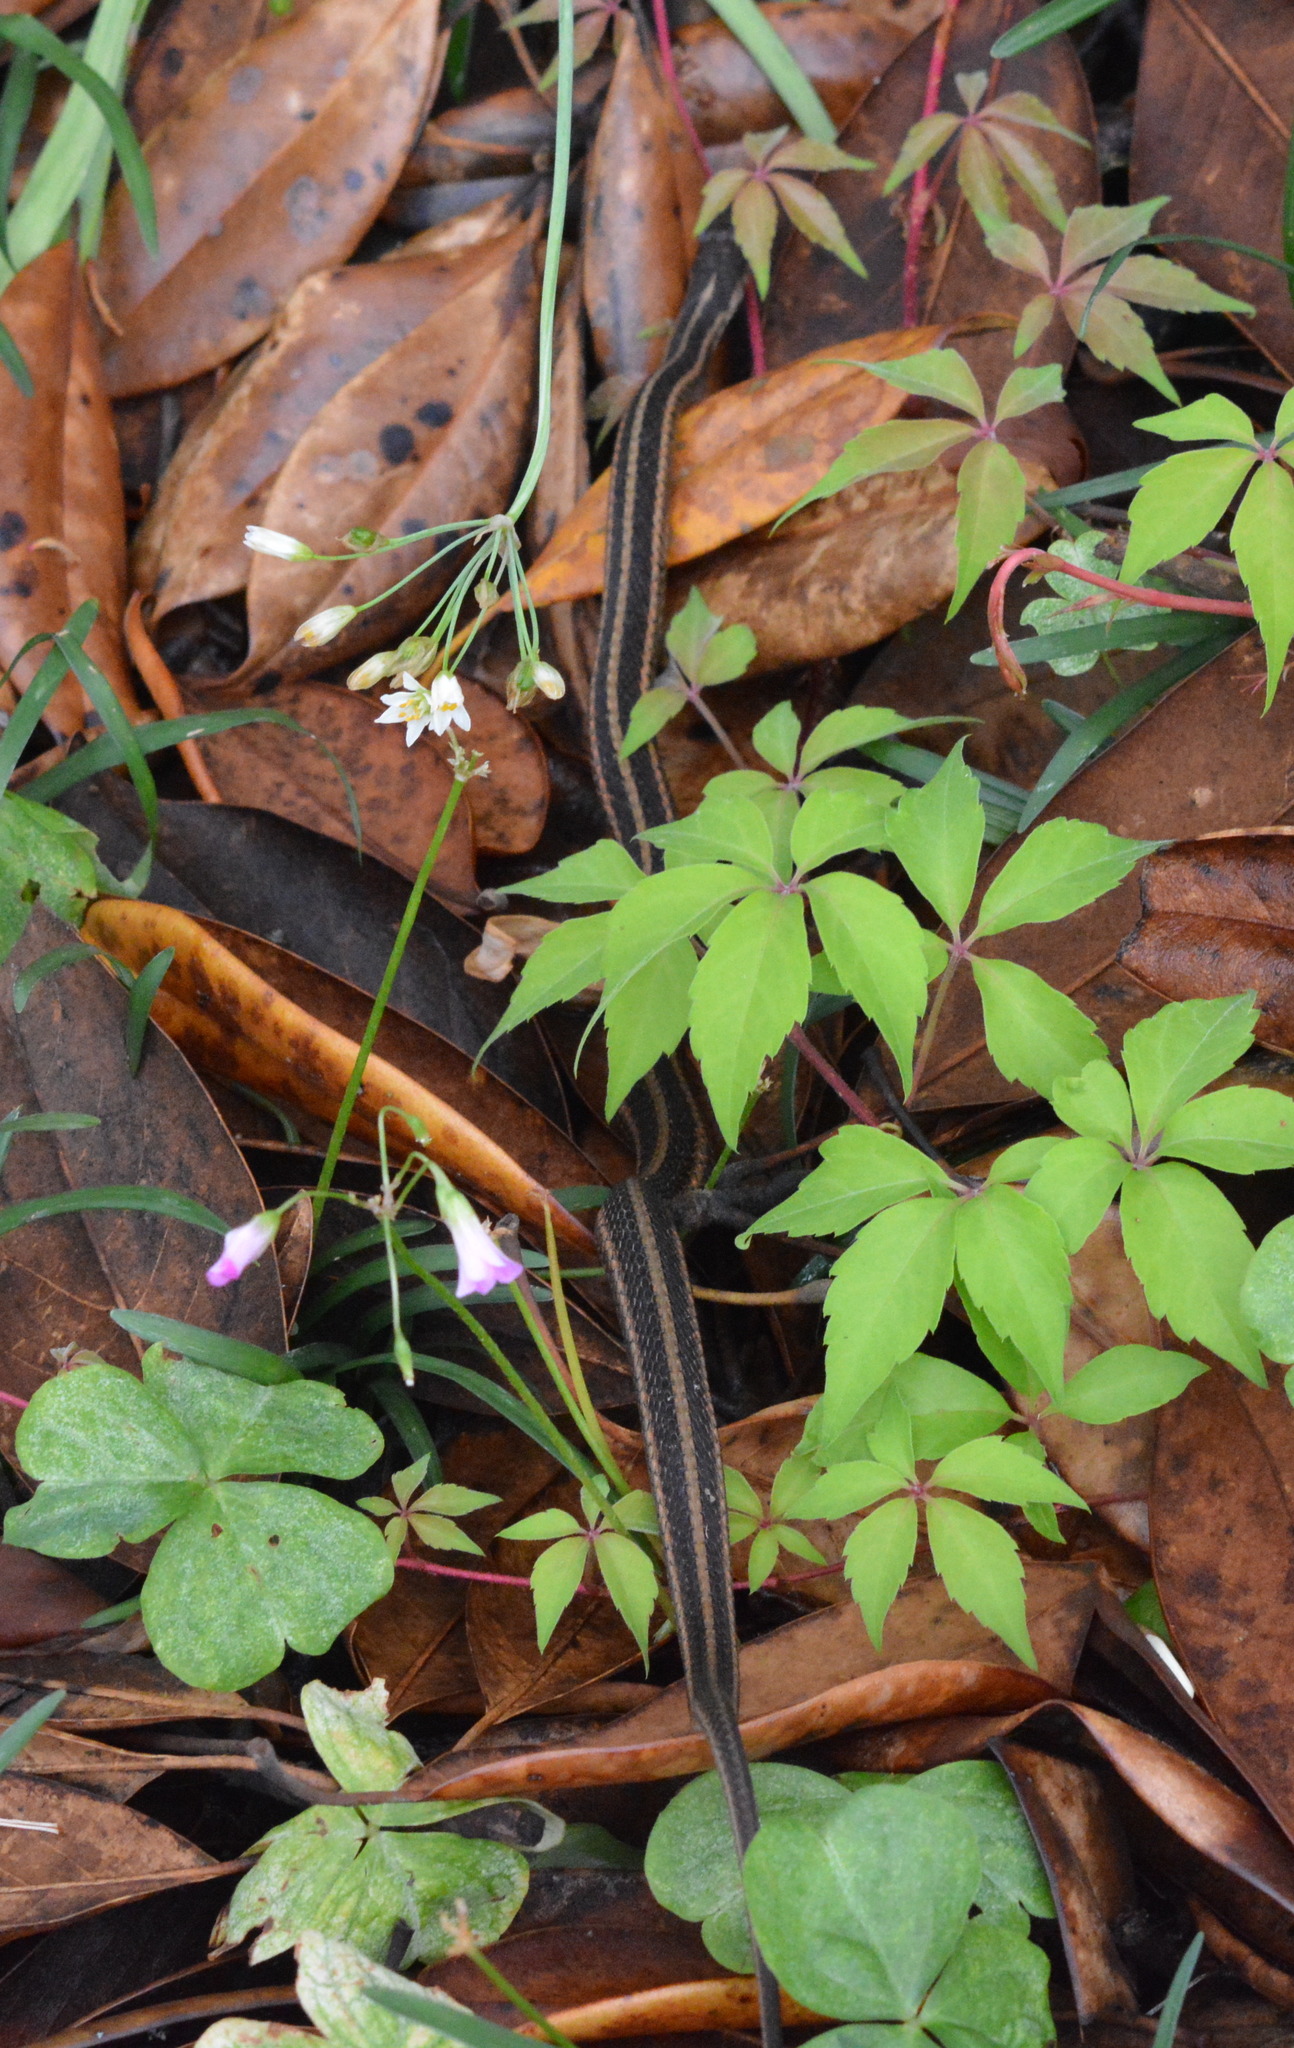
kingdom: Animalia
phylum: Chordata
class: Squamata
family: Colubridae
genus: Thamnophis
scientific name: Thamnophis sirtalis
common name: Common garter snake
